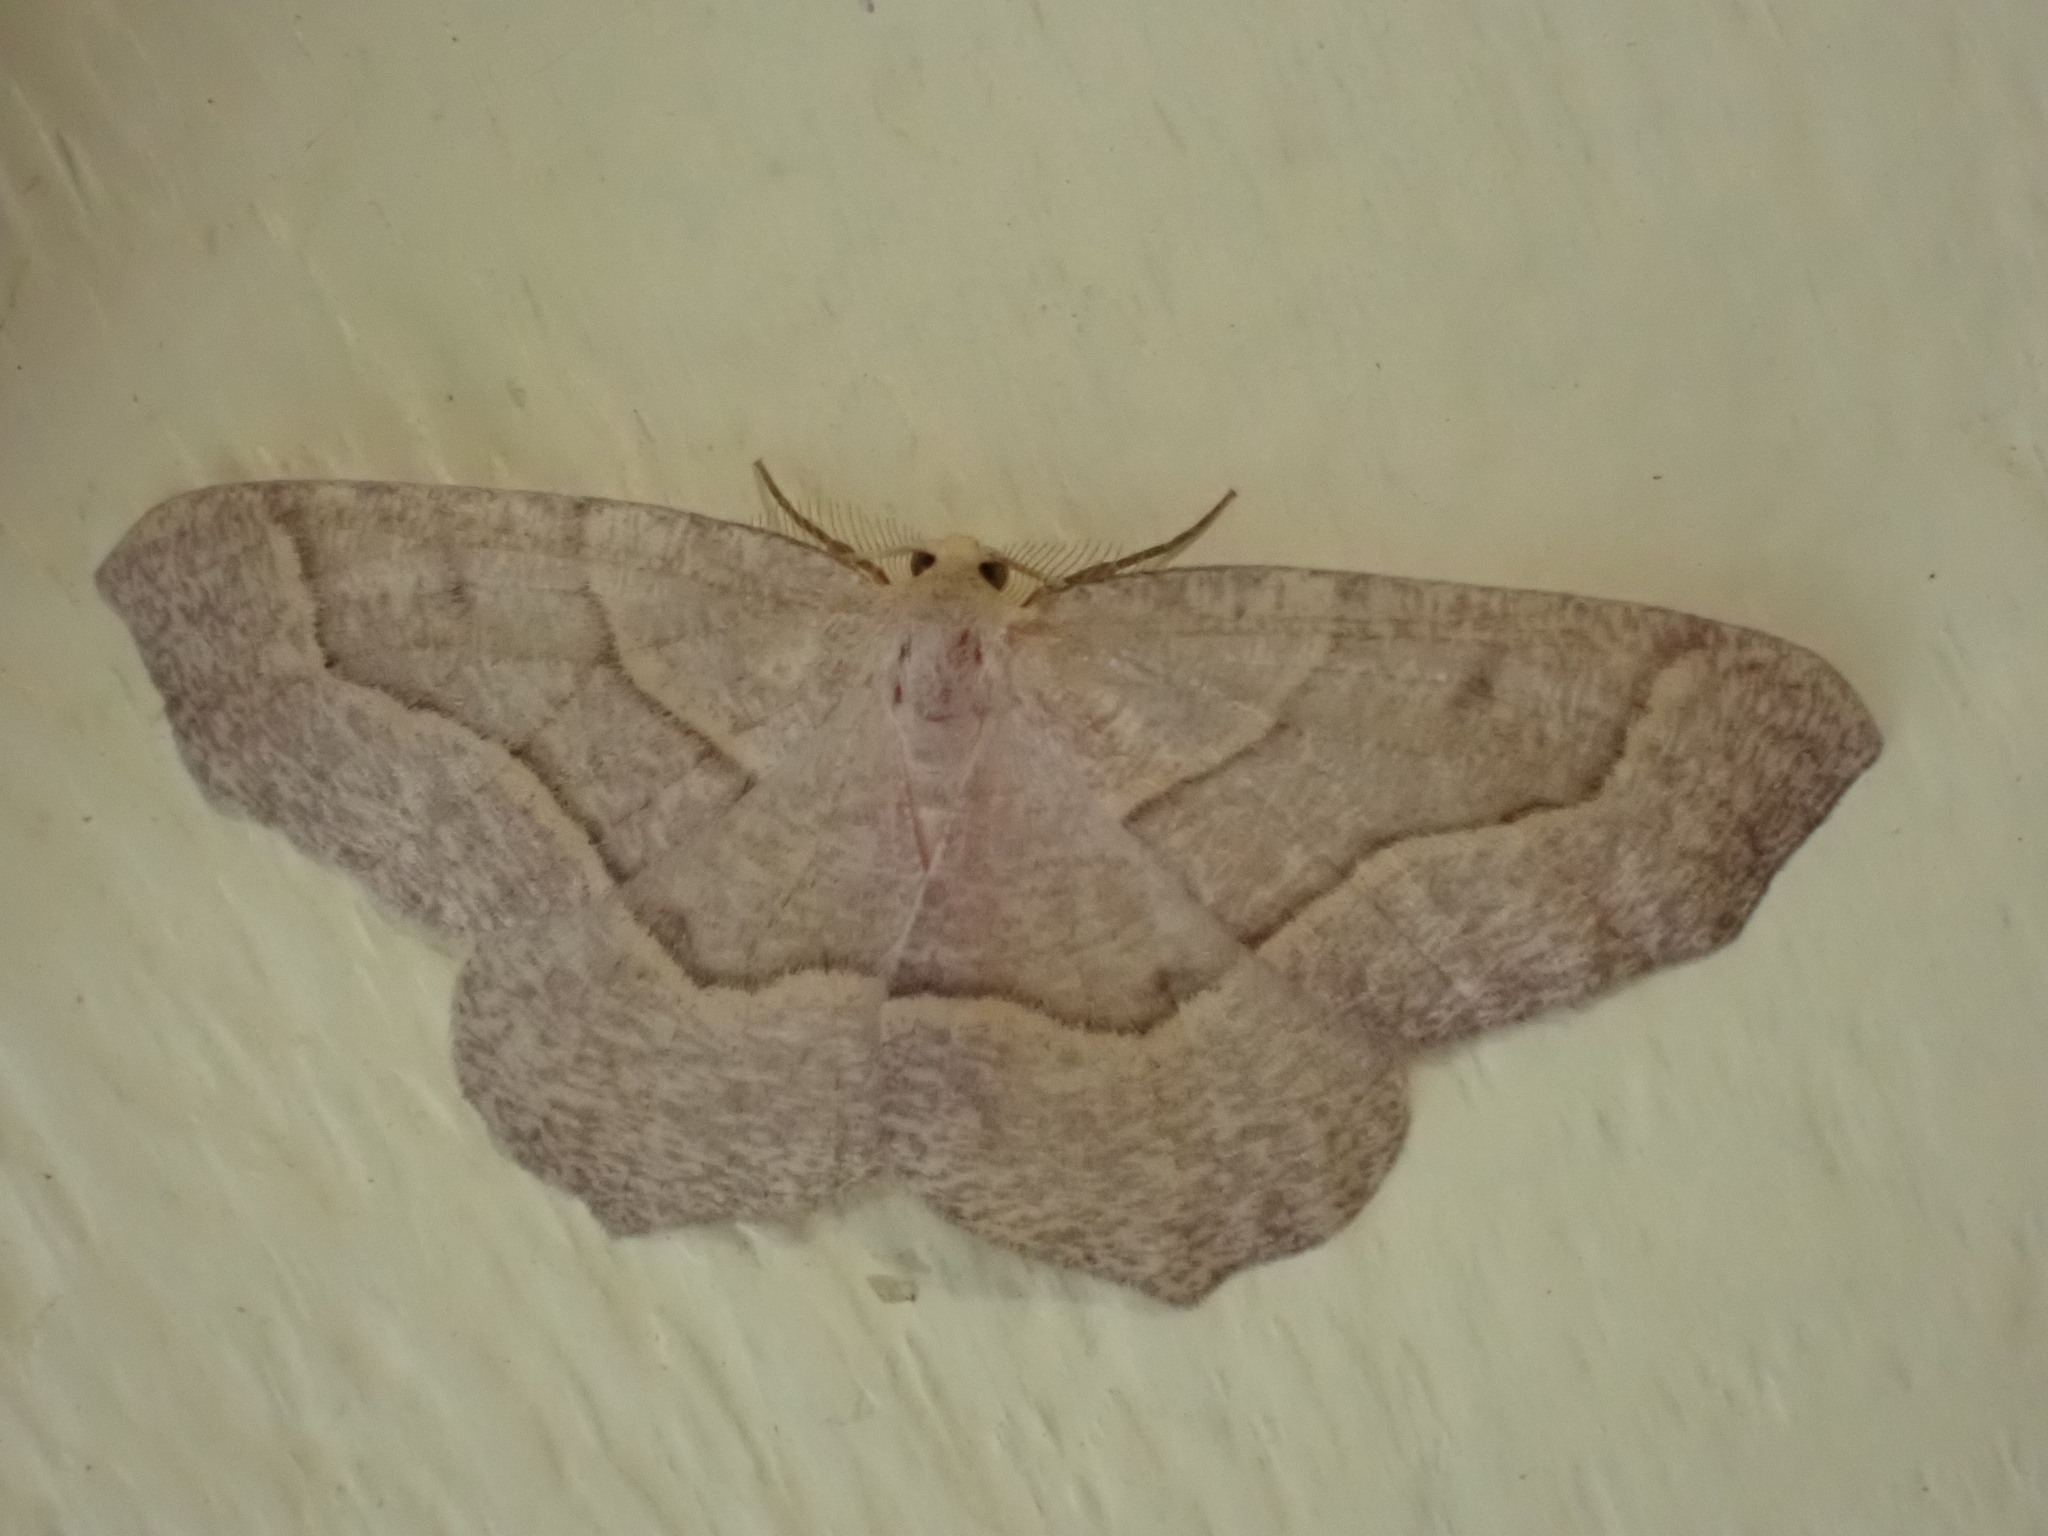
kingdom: Animalia
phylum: Arthropoda
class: Insecta
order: Lepidoptera
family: Geometridae
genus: Lambdina
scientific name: Lambdina fiscellaria
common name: Hemlock looper
